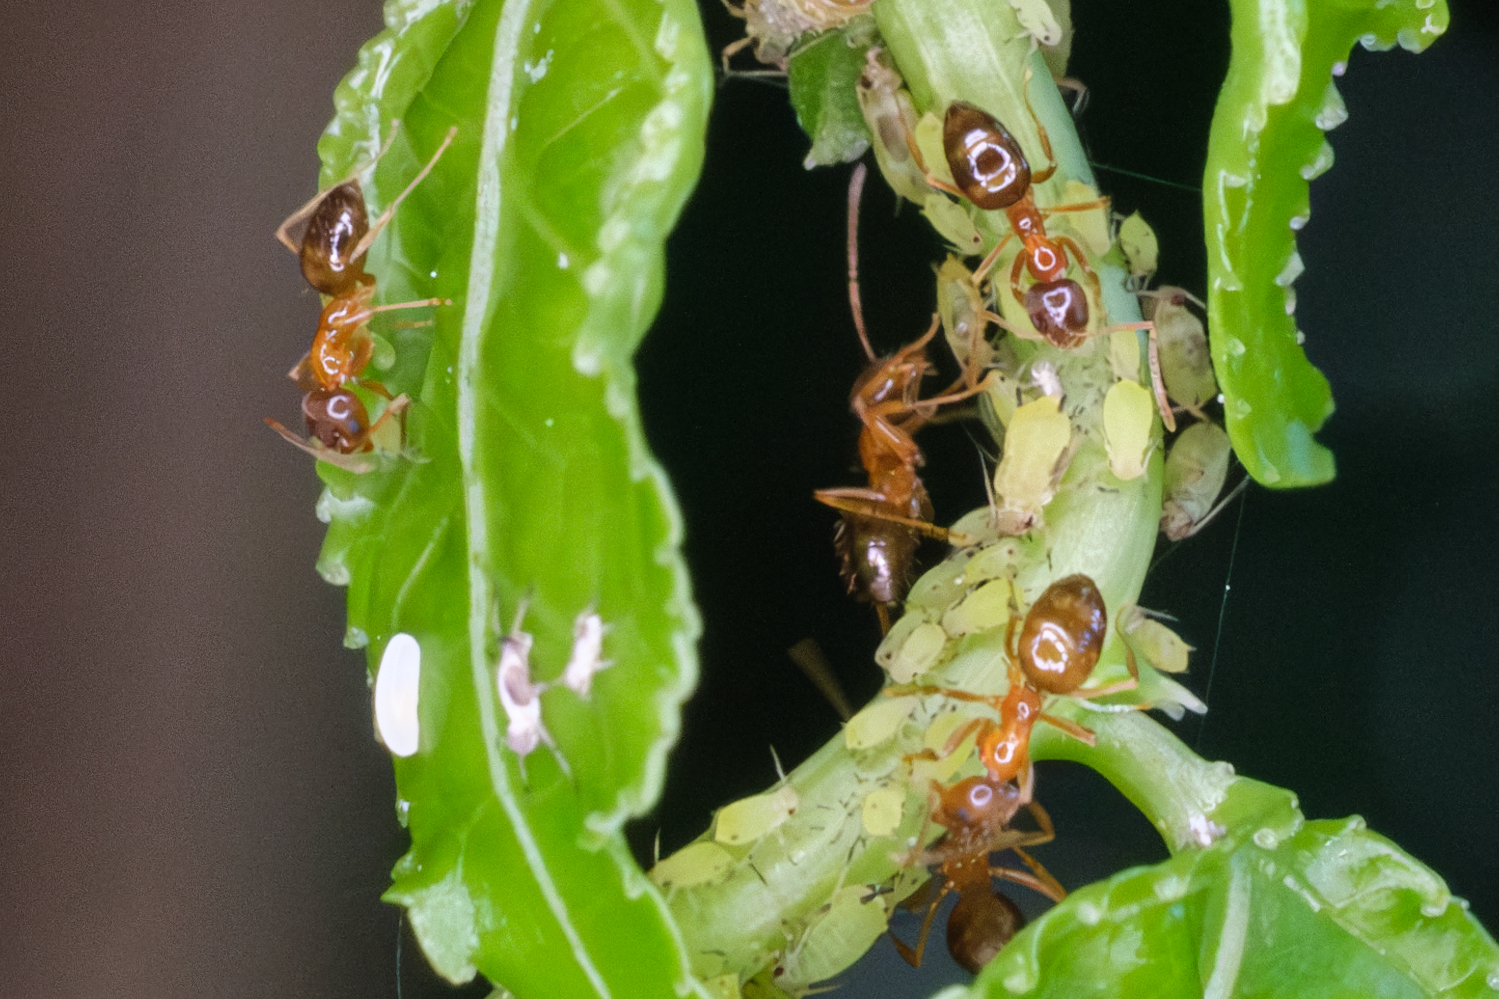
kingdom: Animalia
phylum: Arthropoda
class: Insecta
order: Hymenoptera
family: Formicidae
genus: Paratrechina
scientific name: Paratrechina flavipes
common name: Eastern asian formicine ant
